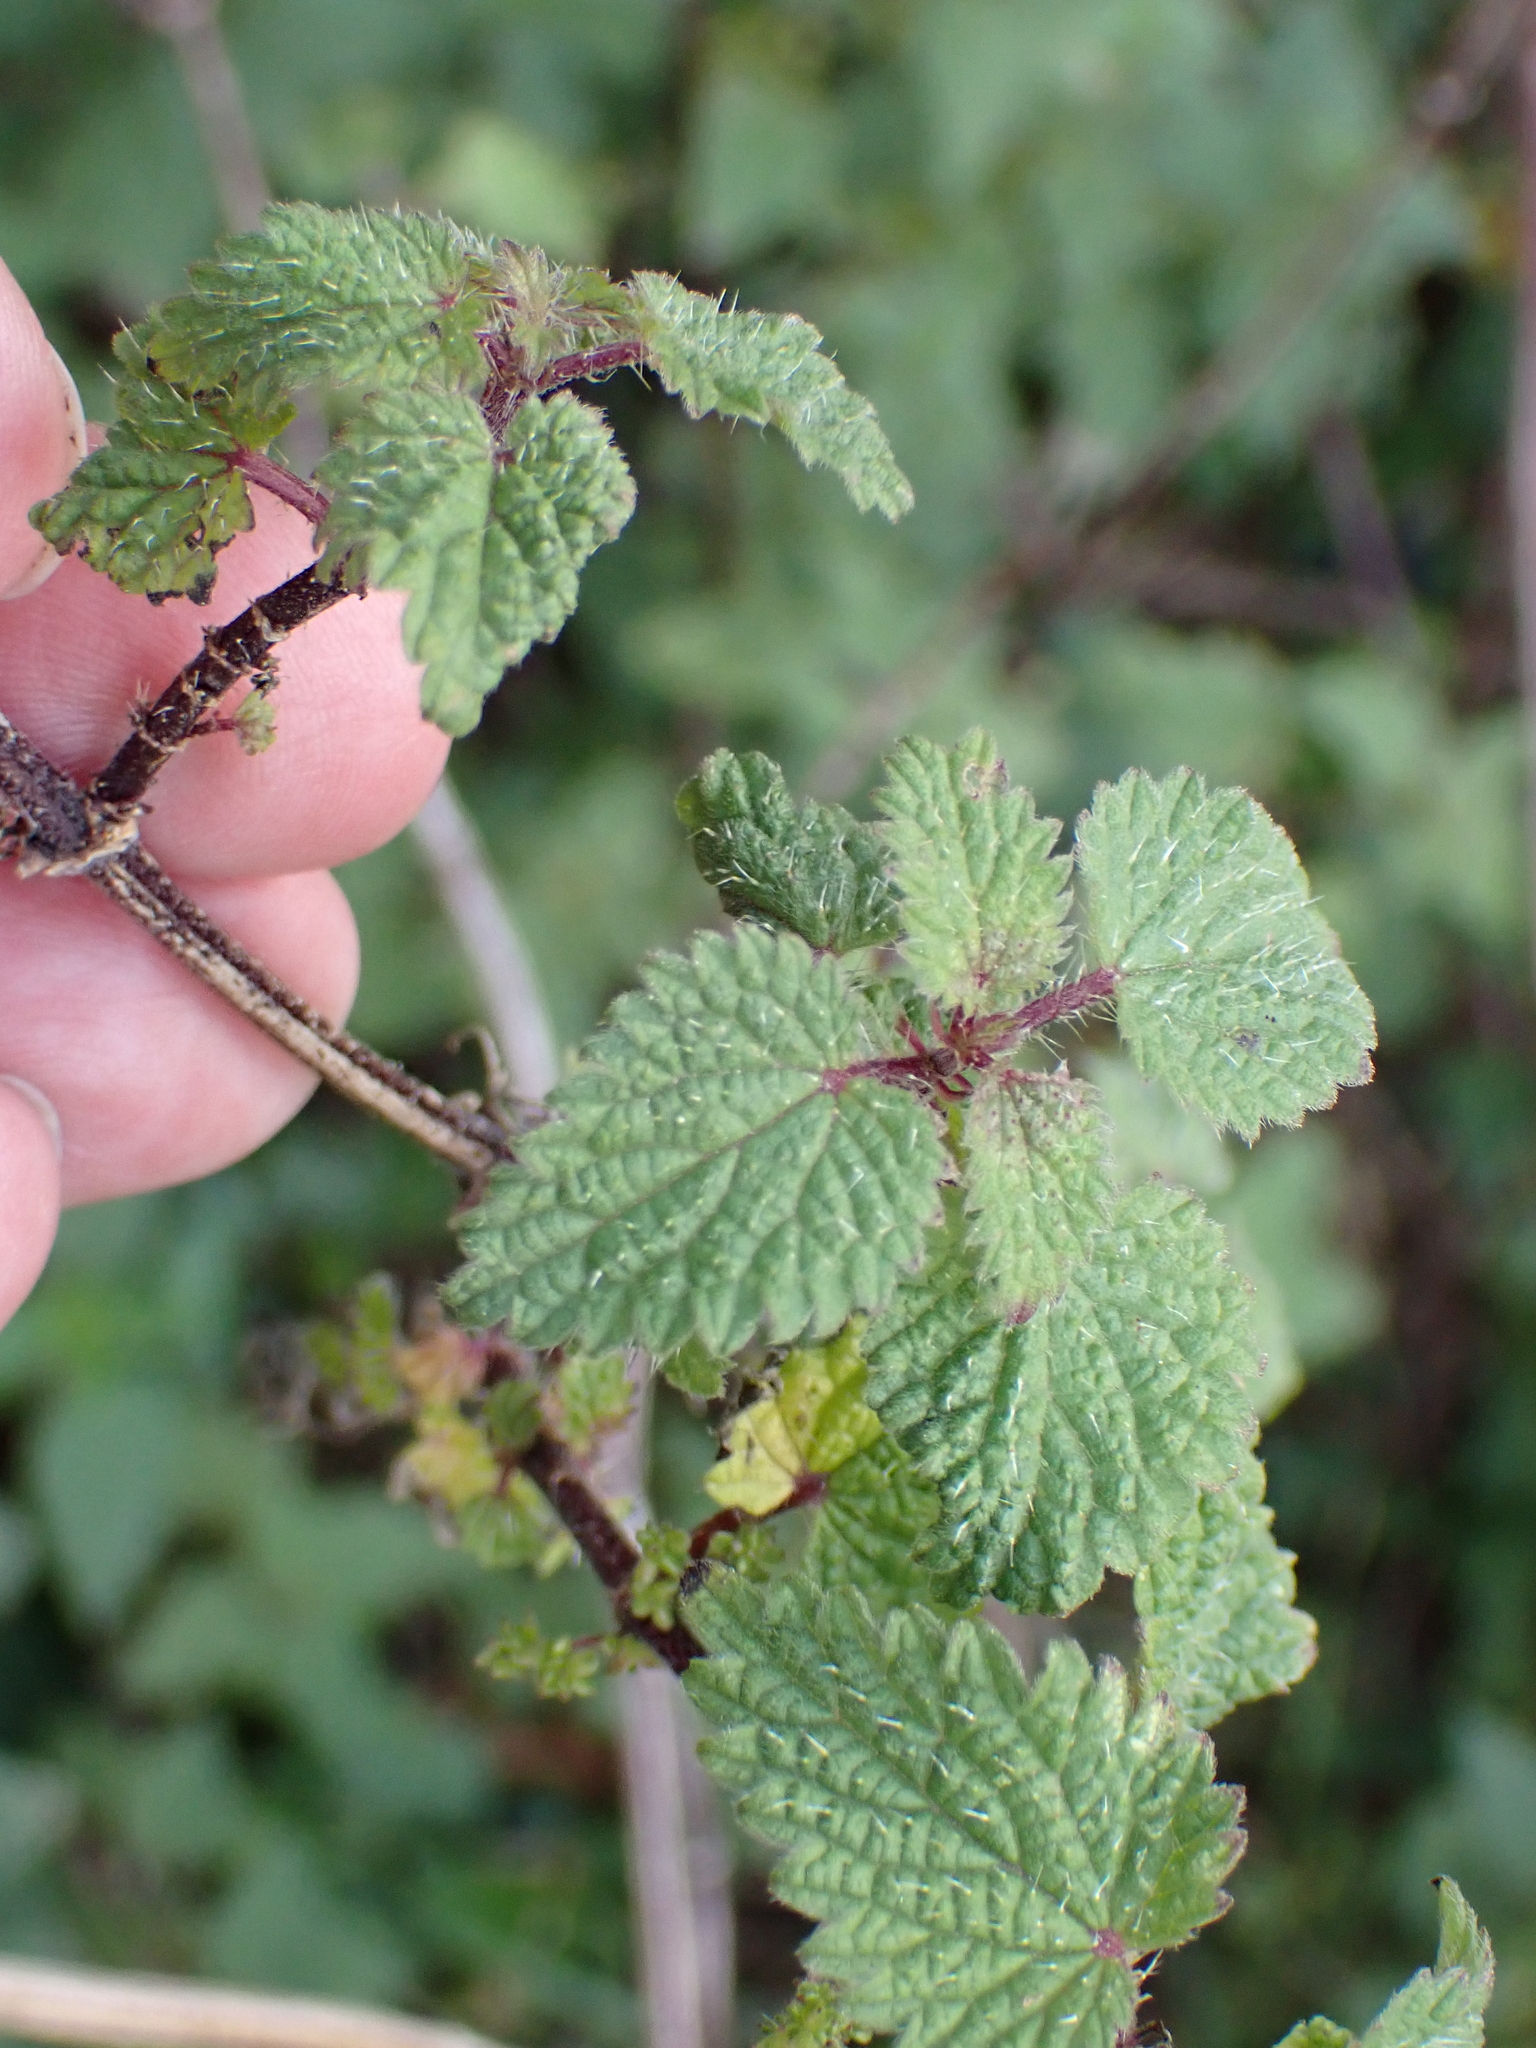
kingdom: Plantae
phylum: Tracheophyta
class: Magnoliopsida
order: Rosales
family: Urticaceae
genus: Urtica
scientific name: Urtica dioica
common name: Common nettle
